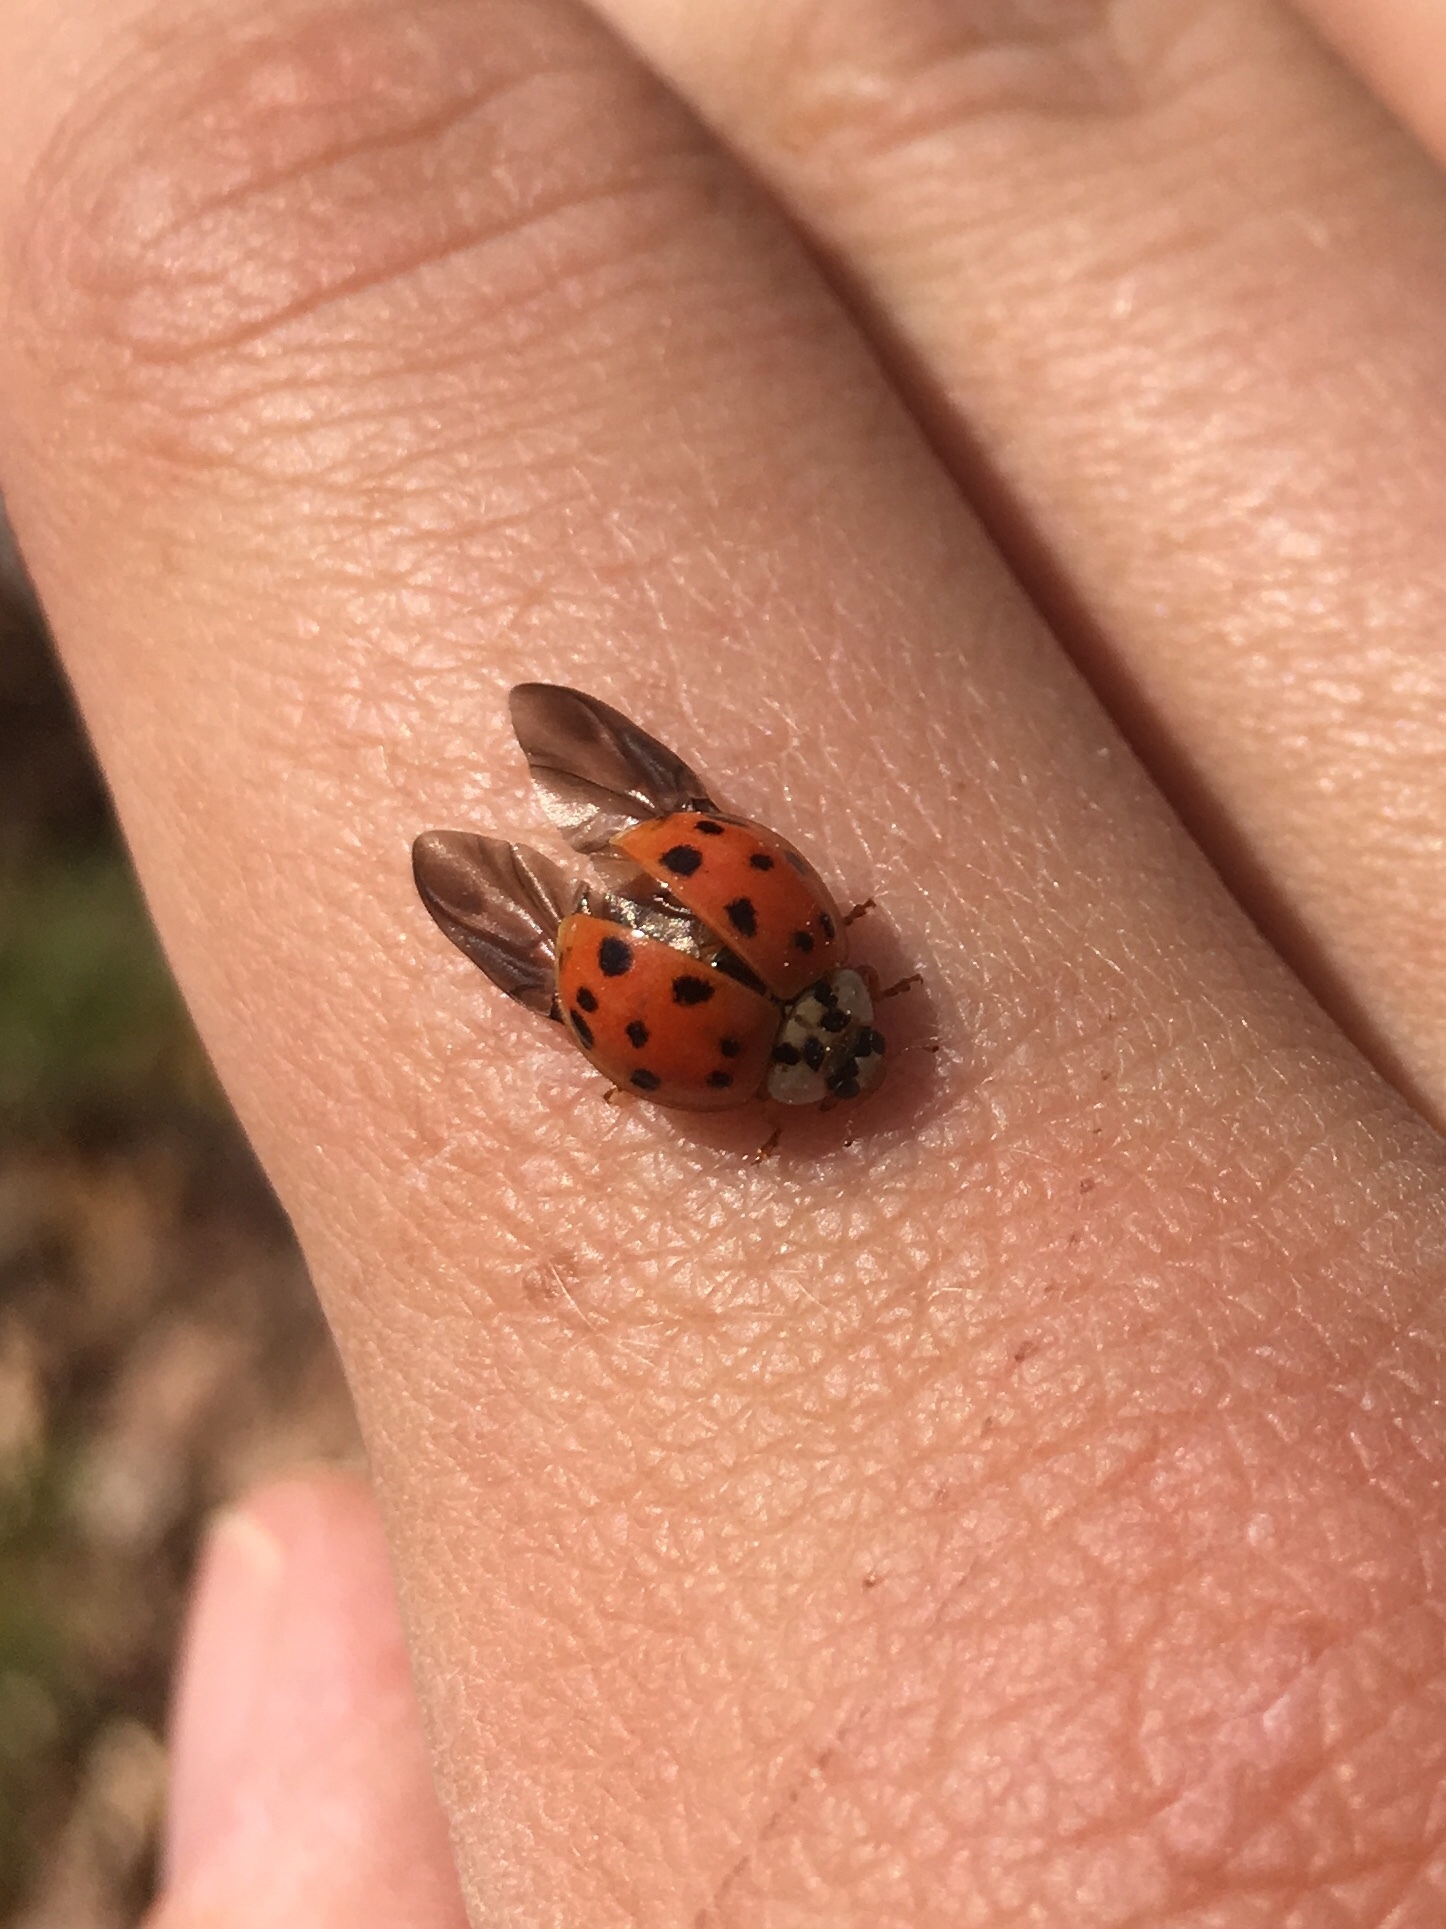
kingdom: Animalia
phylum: Arthropoda
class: Insecta
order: Coleoptera
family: Coccinellidae
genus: Harmonia
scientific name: Harmonia axyridis
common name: Harlequin ladybird
